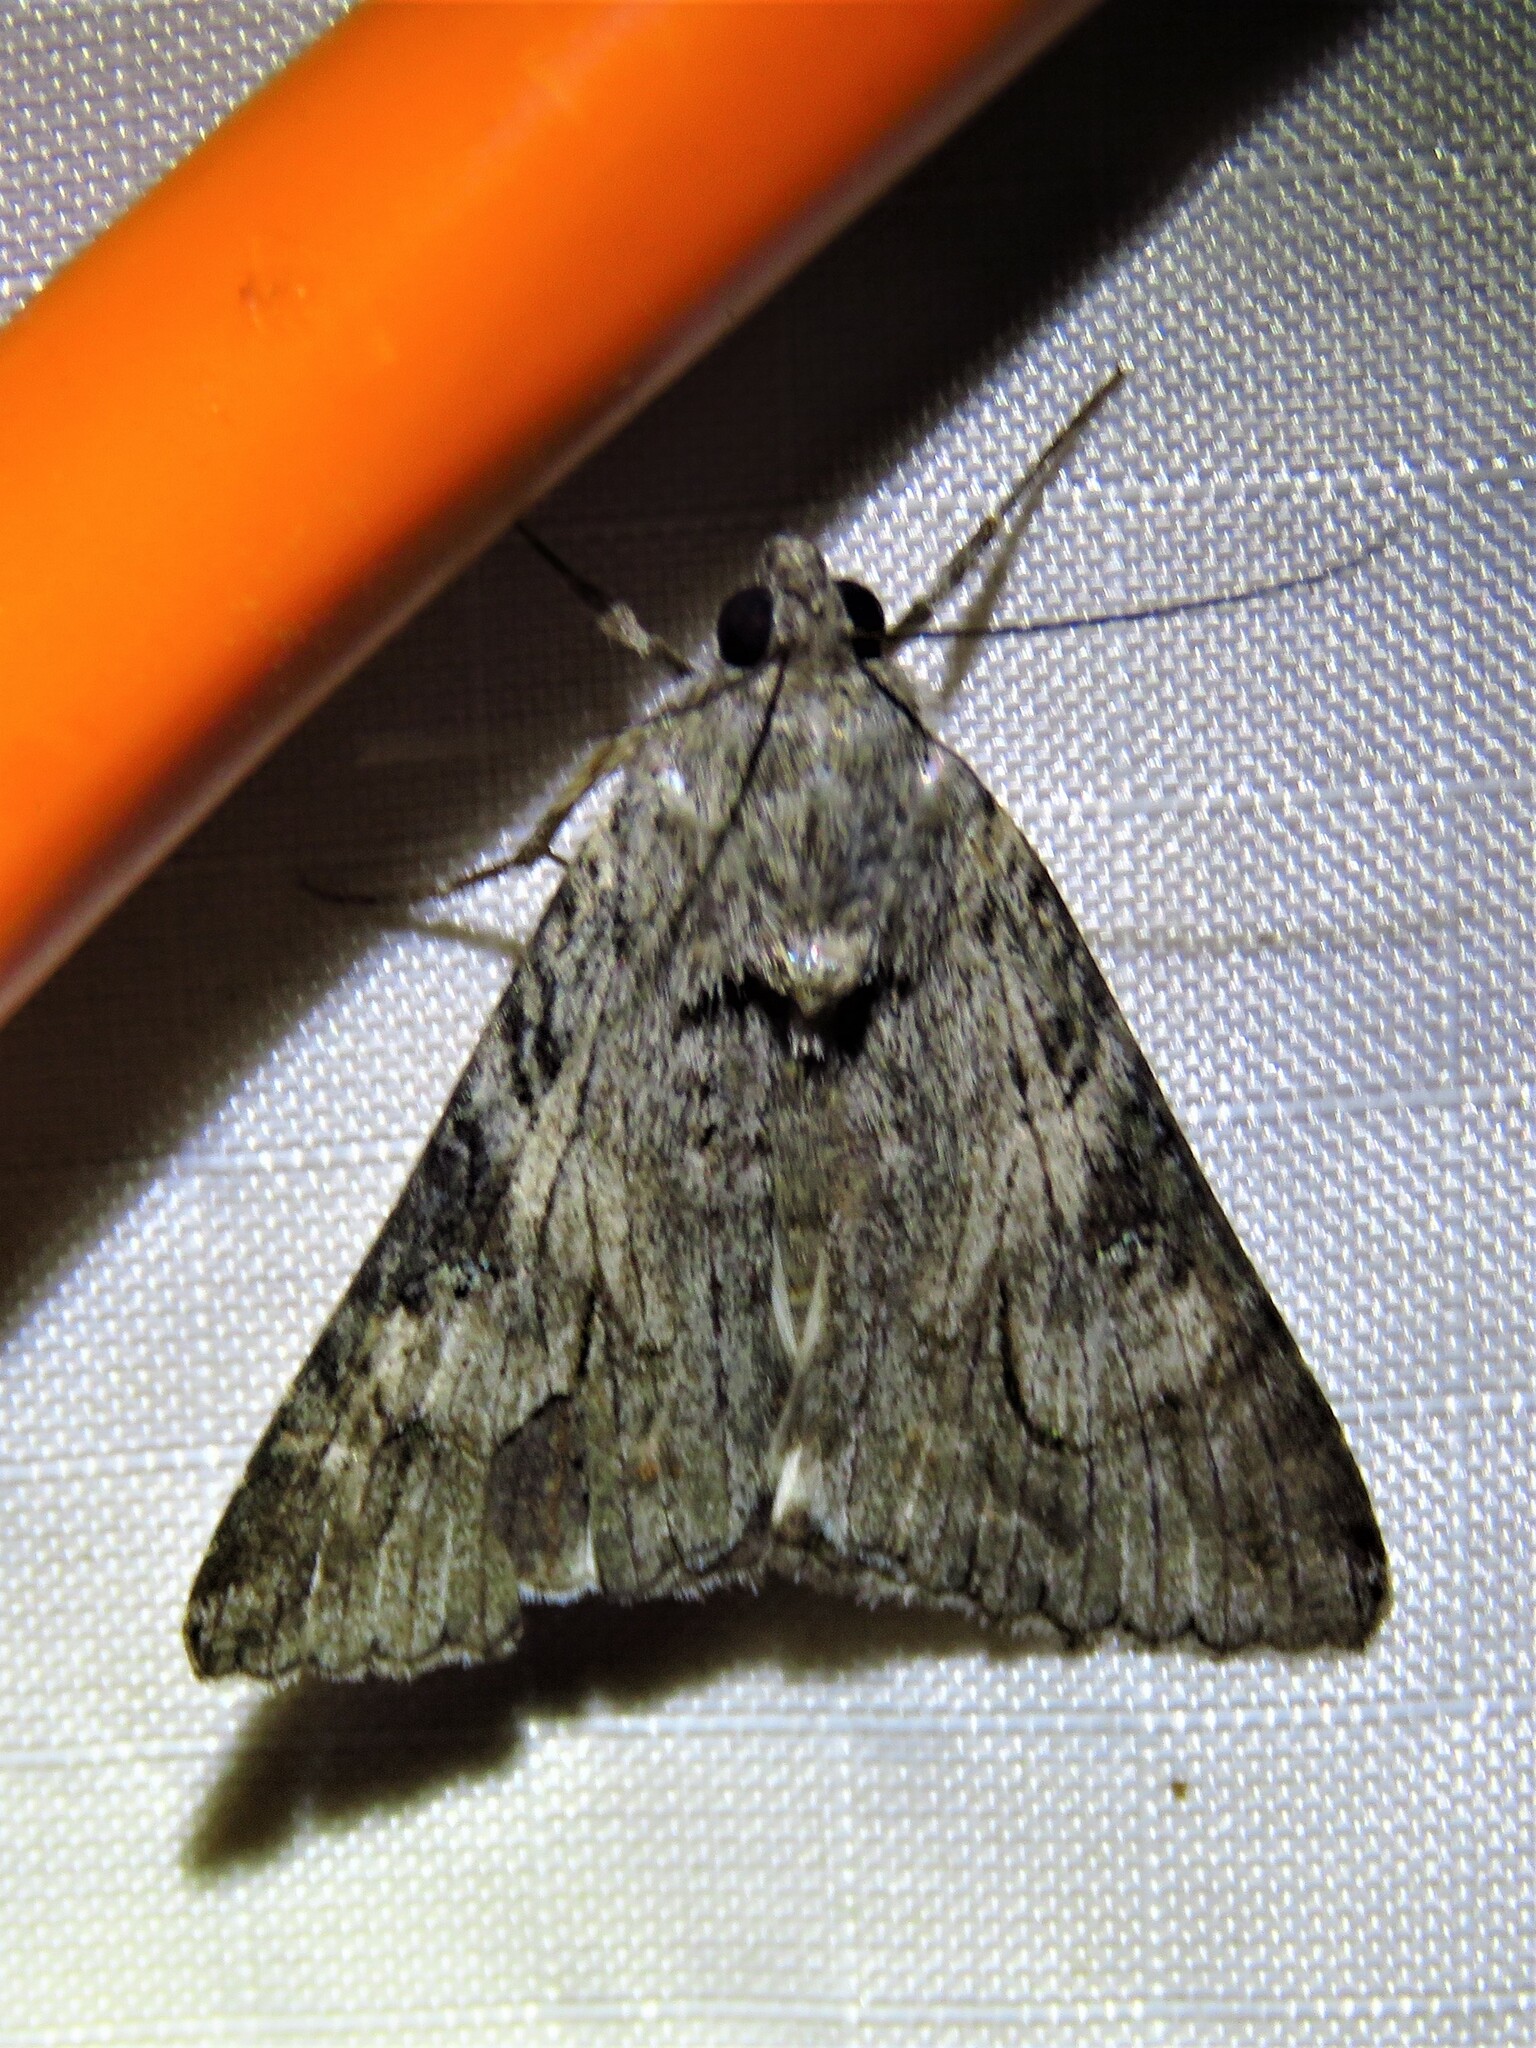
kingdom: Animalia
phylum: Arthropoda
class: Insecta
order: Lepidoptera
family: Erebidae
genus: Melipotis
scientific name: Melipotis jucunda
